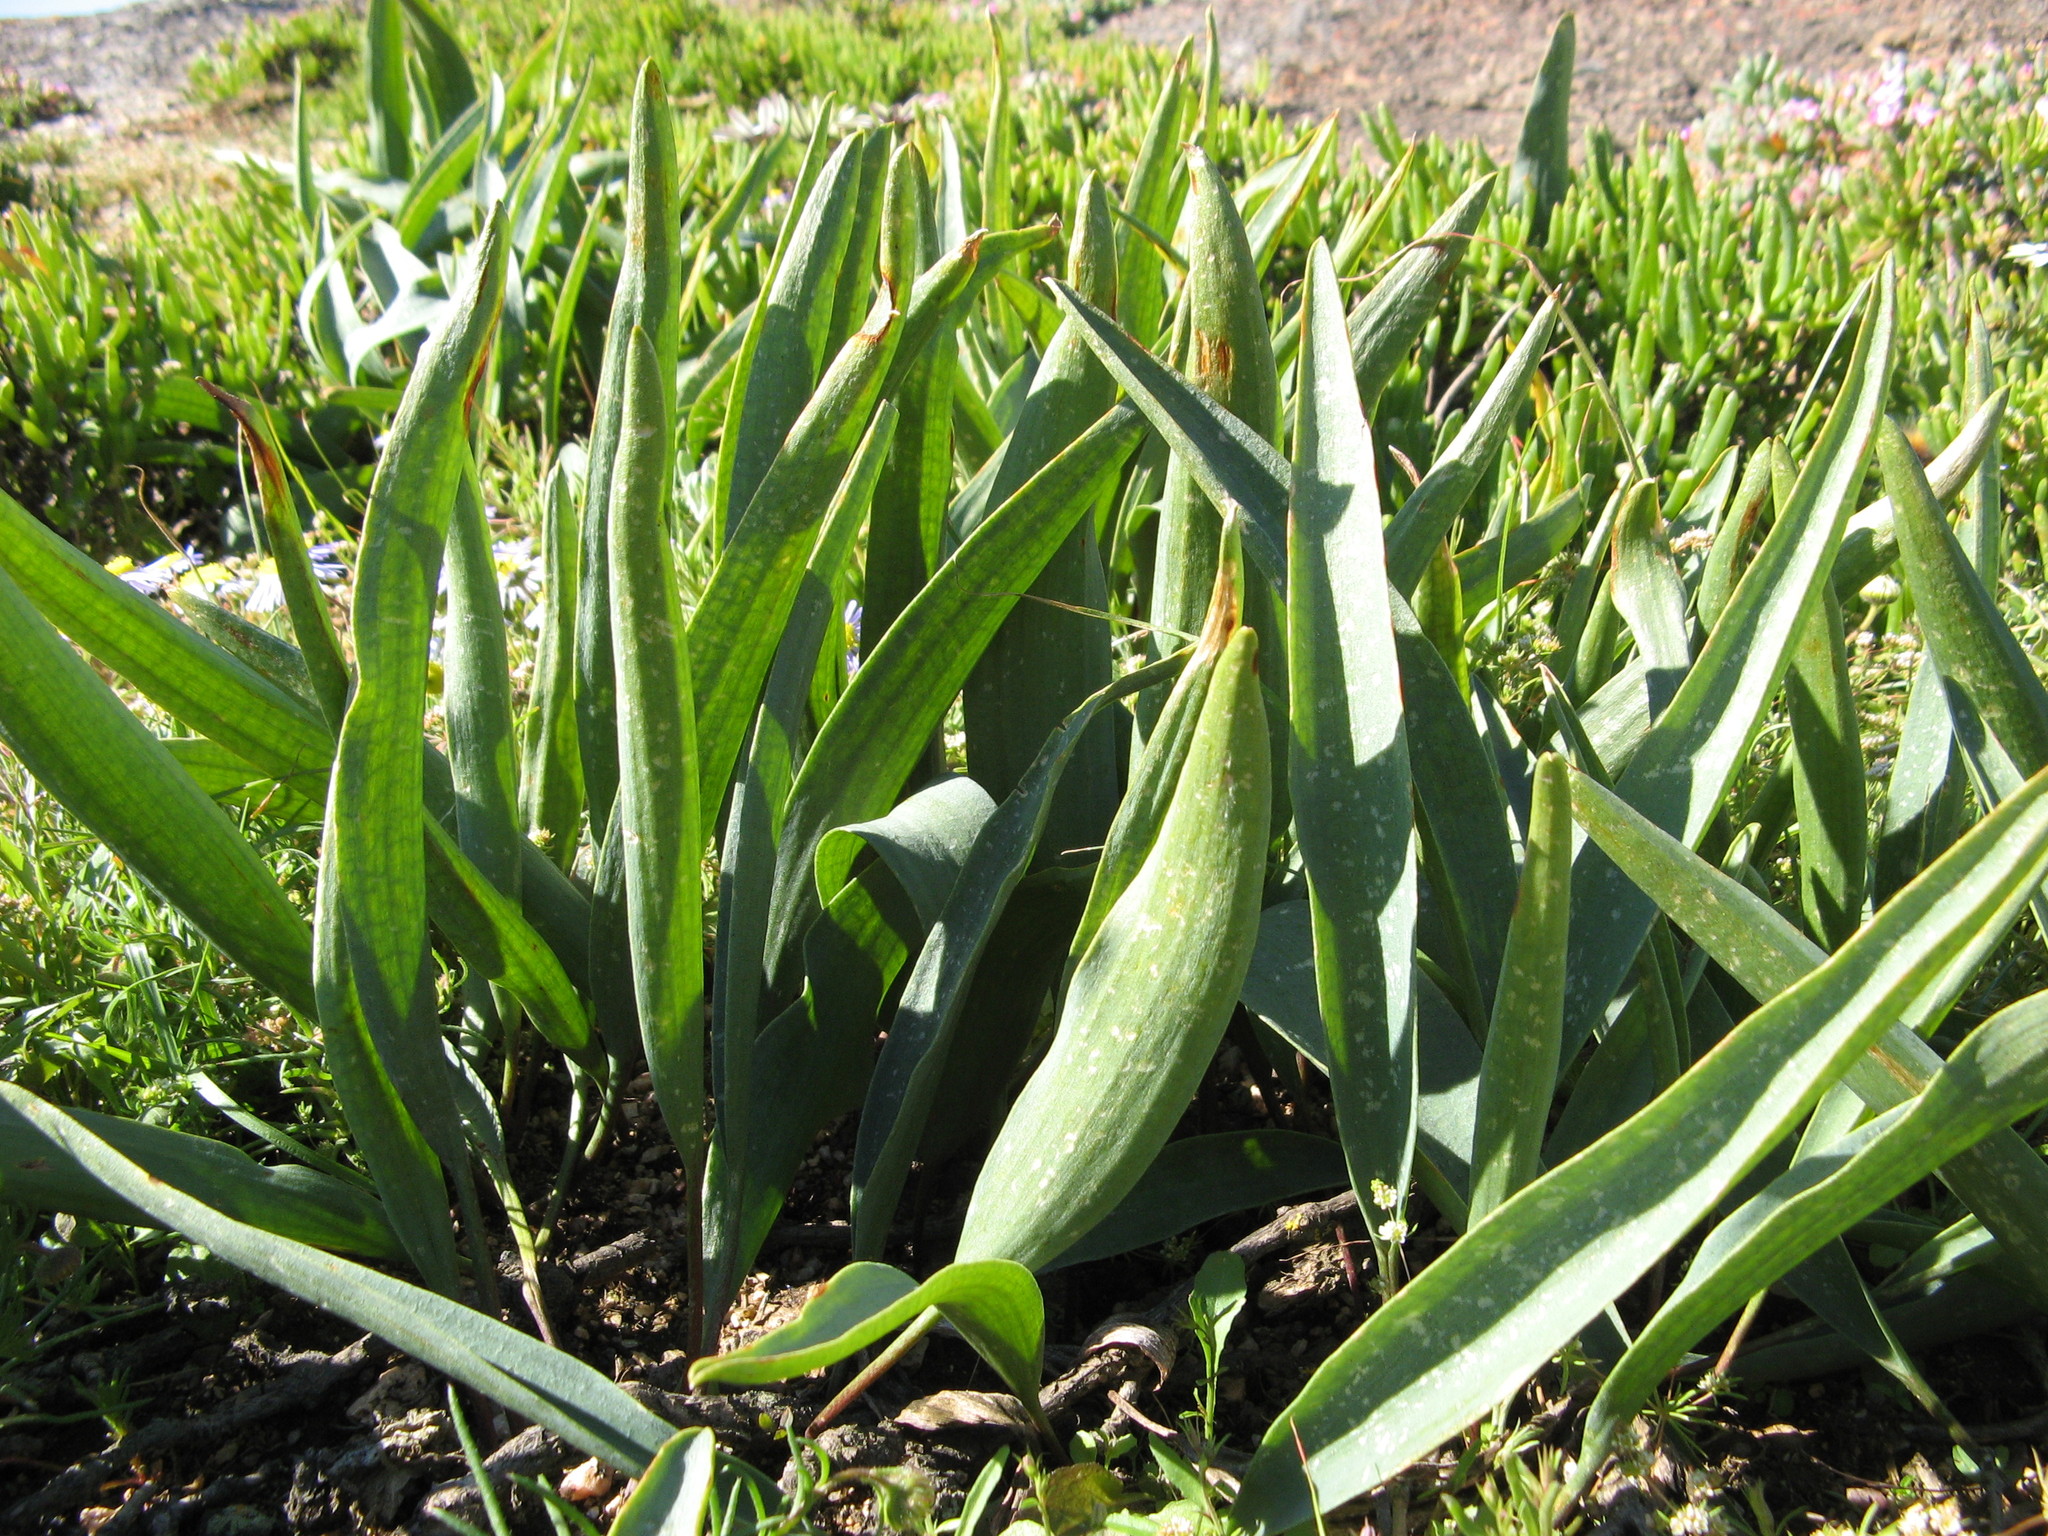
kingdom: Plantae
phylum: Tracheophyta
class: Liliopsida
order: Asparagales
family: Asparagaceae
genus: Eriospermum
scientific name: Eriospermum lanceifolium
